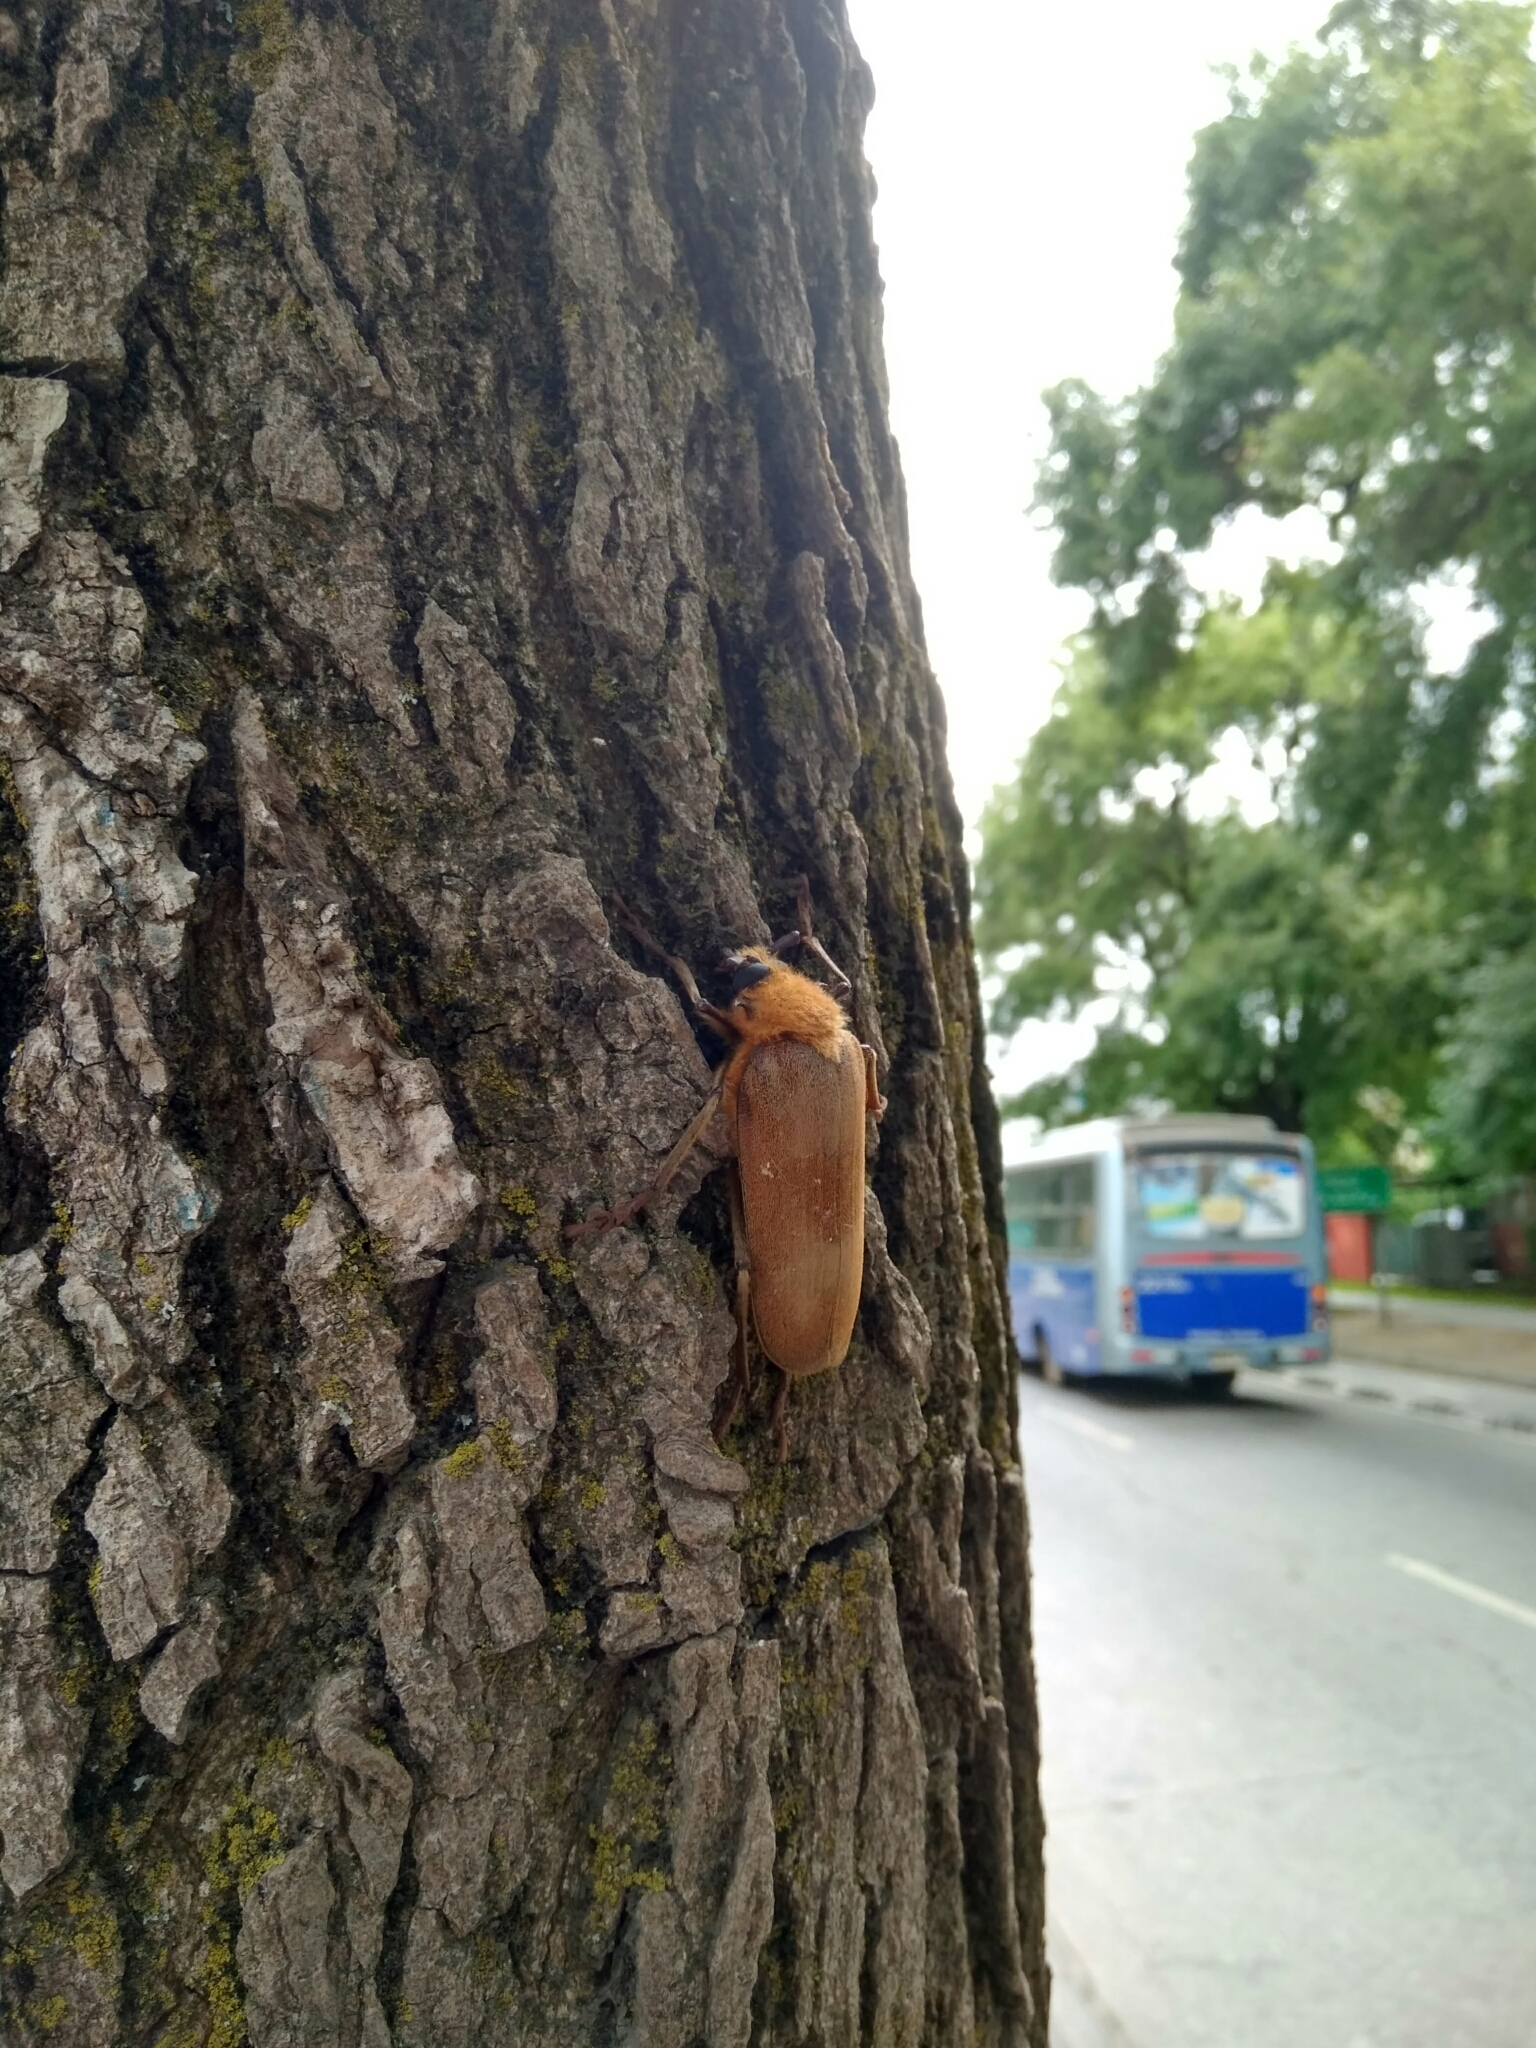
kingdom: Animalia
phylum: Arthropoda
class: Insecta
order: Coleoptera
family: Cerambycidae
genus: Acanthinodera
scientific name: Acanthinodera cumingii
